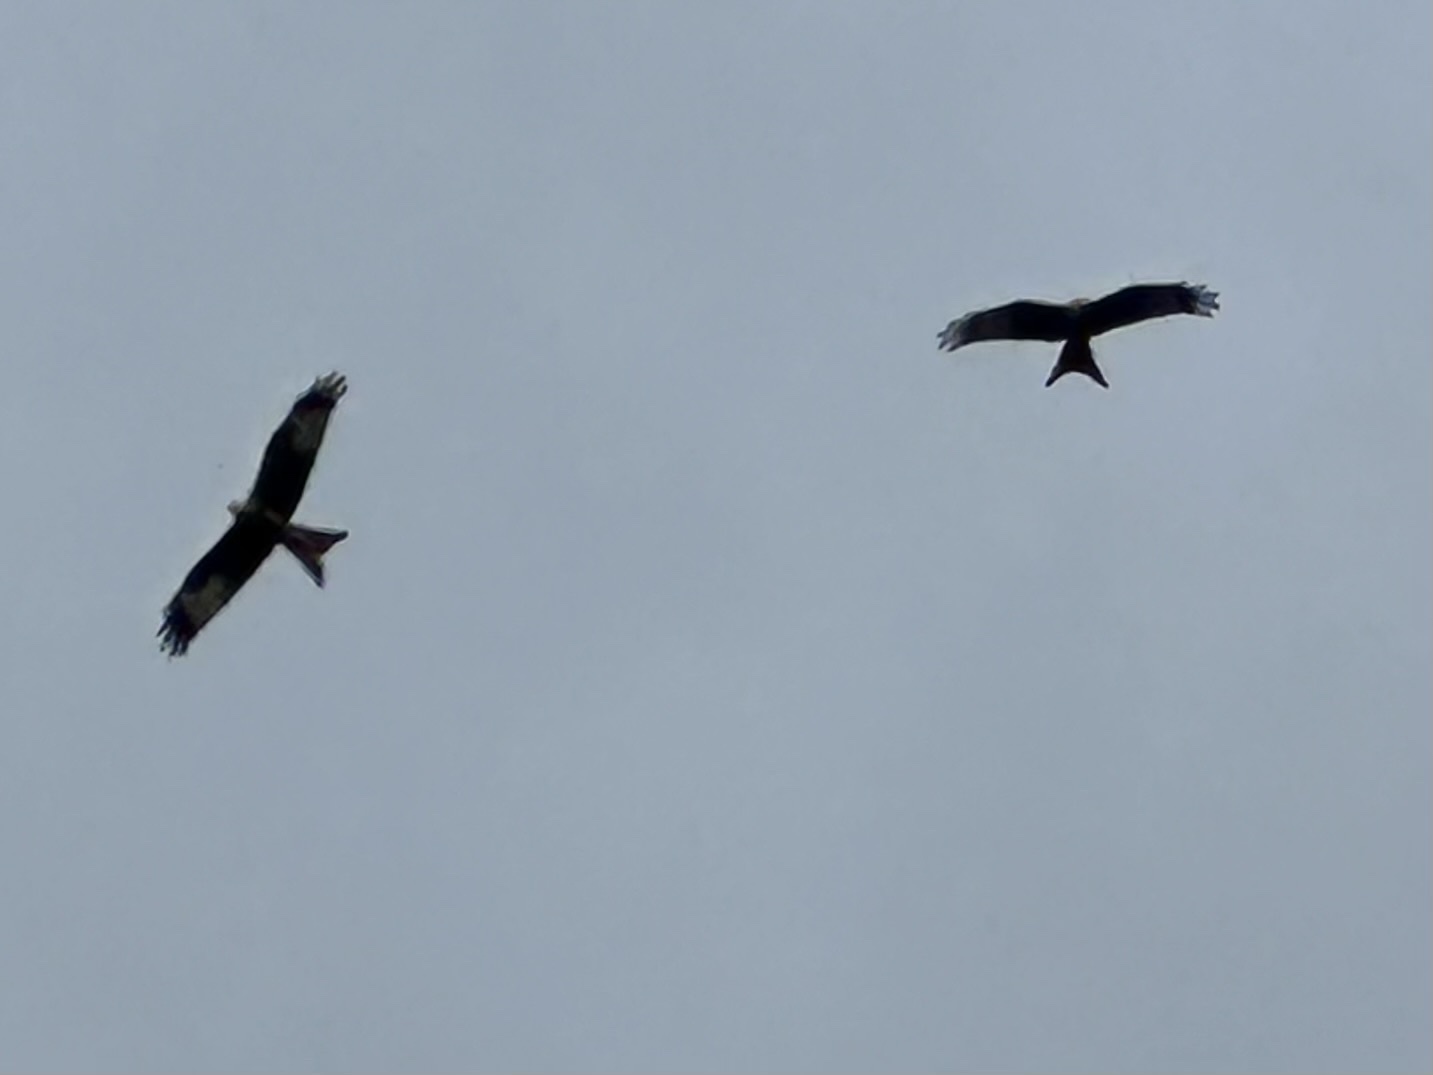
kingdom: Animalia
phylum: Chordata
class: Aves
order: Accipitriformes
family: Accipitridae
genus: Milvus
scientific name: Milvus milvus
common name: Red kite
